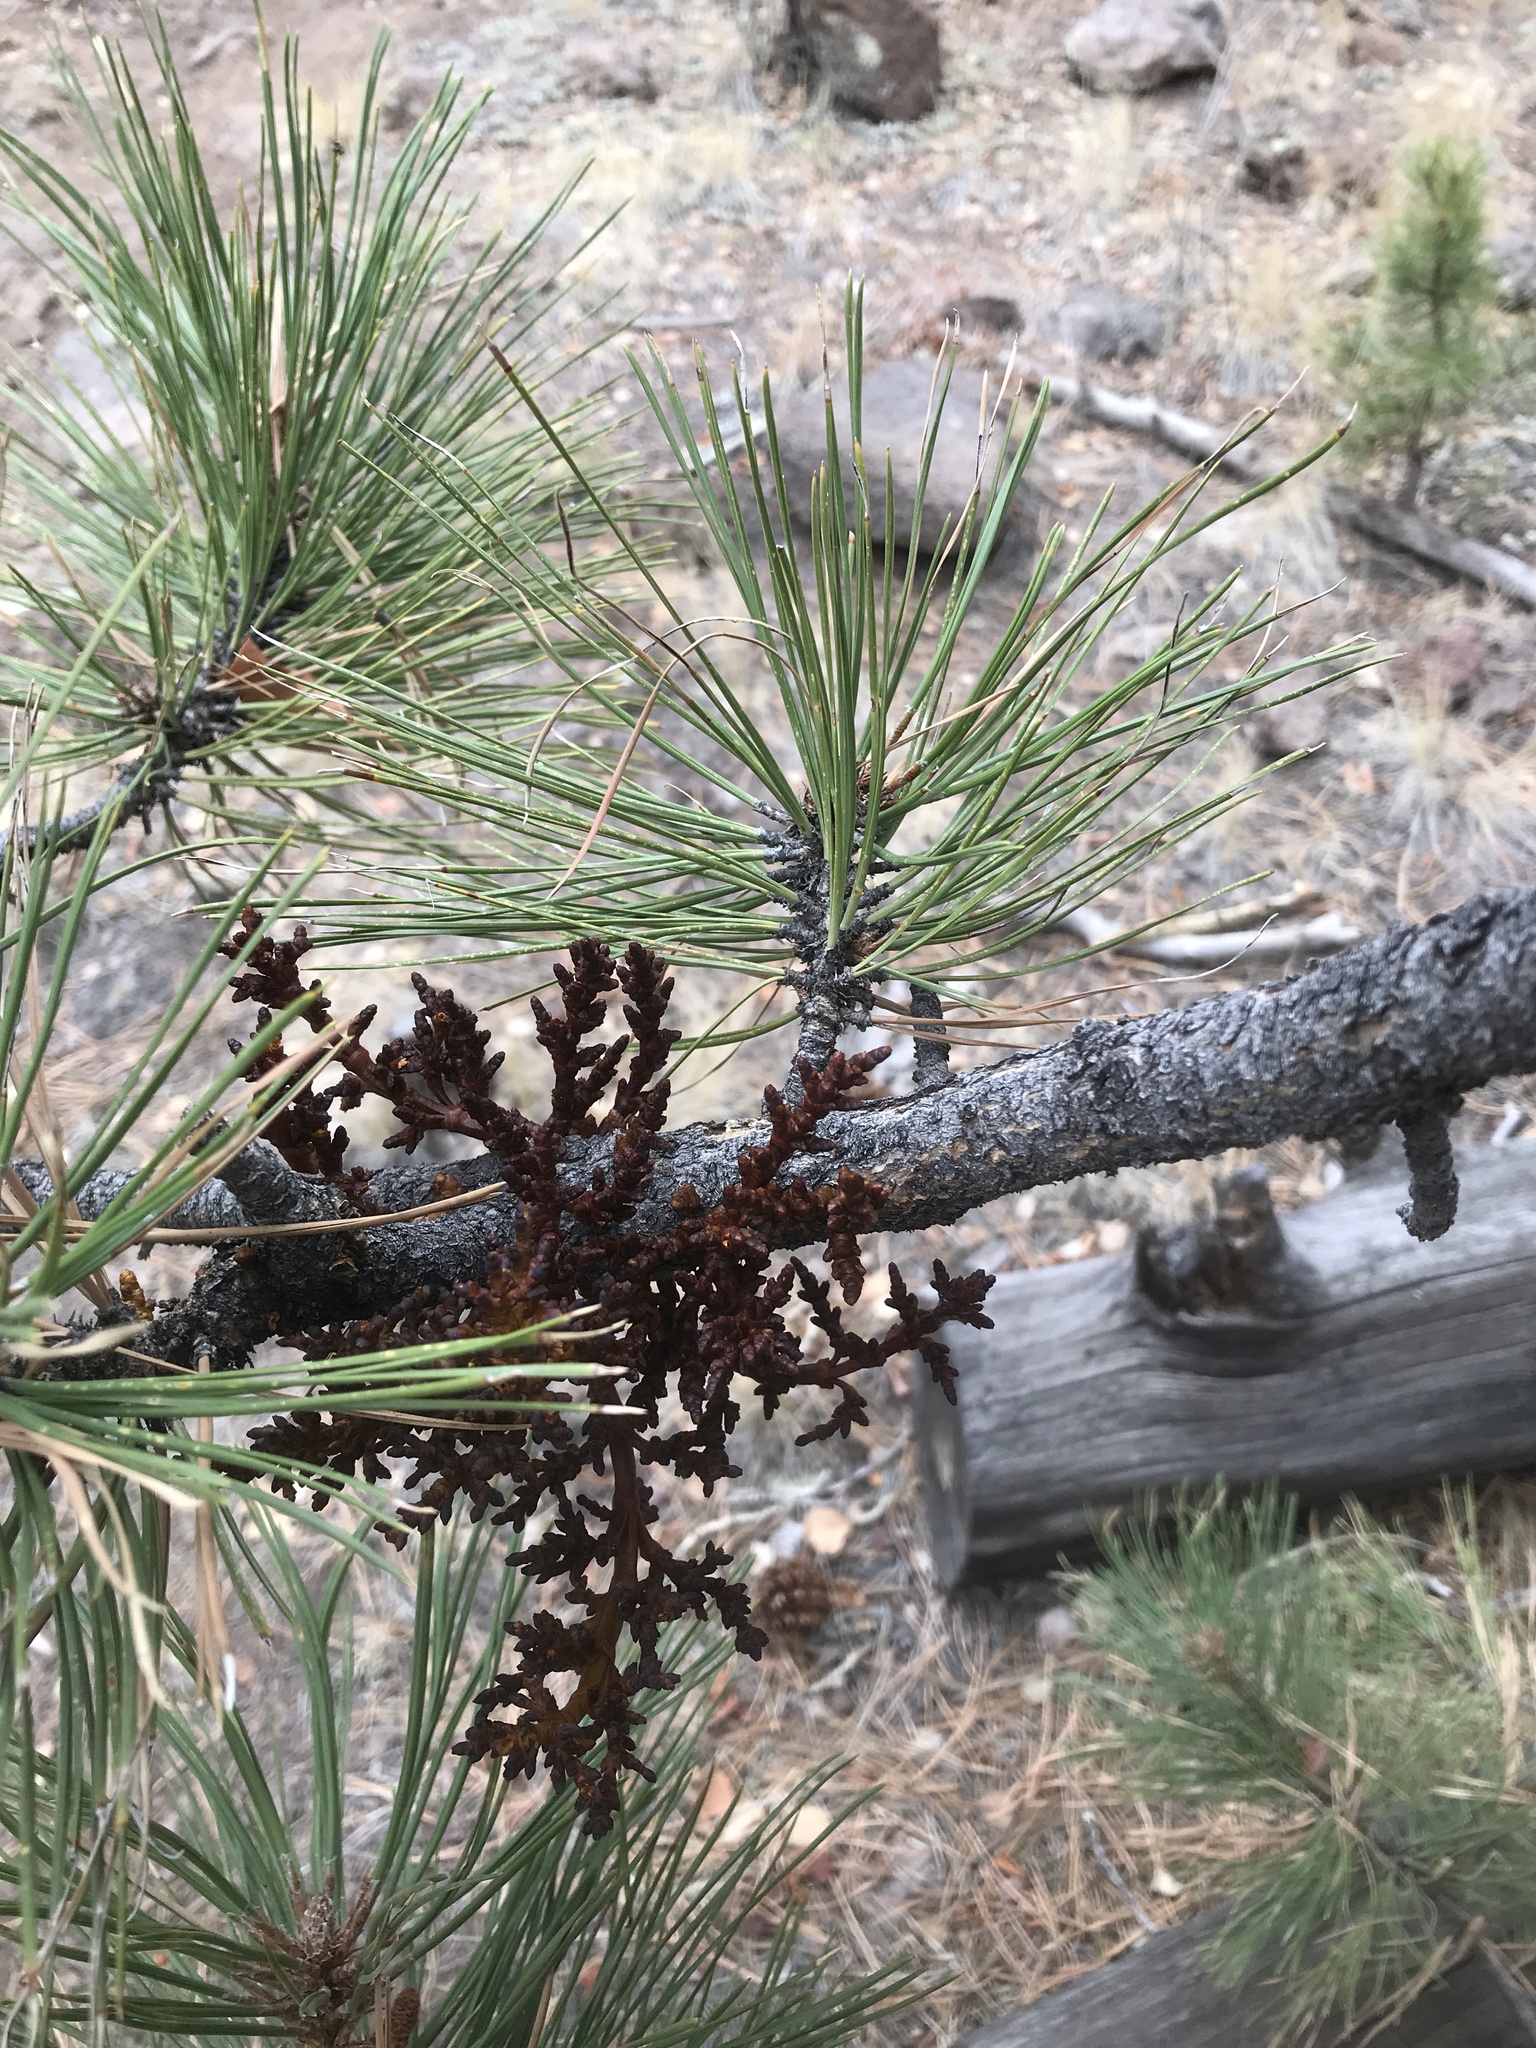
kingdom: Plantae
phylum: Tracheophyta
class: Magnoliopsida
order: Santalales
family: Viscaceae
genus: Arceuthobium
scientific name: Arceuthobium vaginatum
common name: Southwestern dwarf-mistletoe
